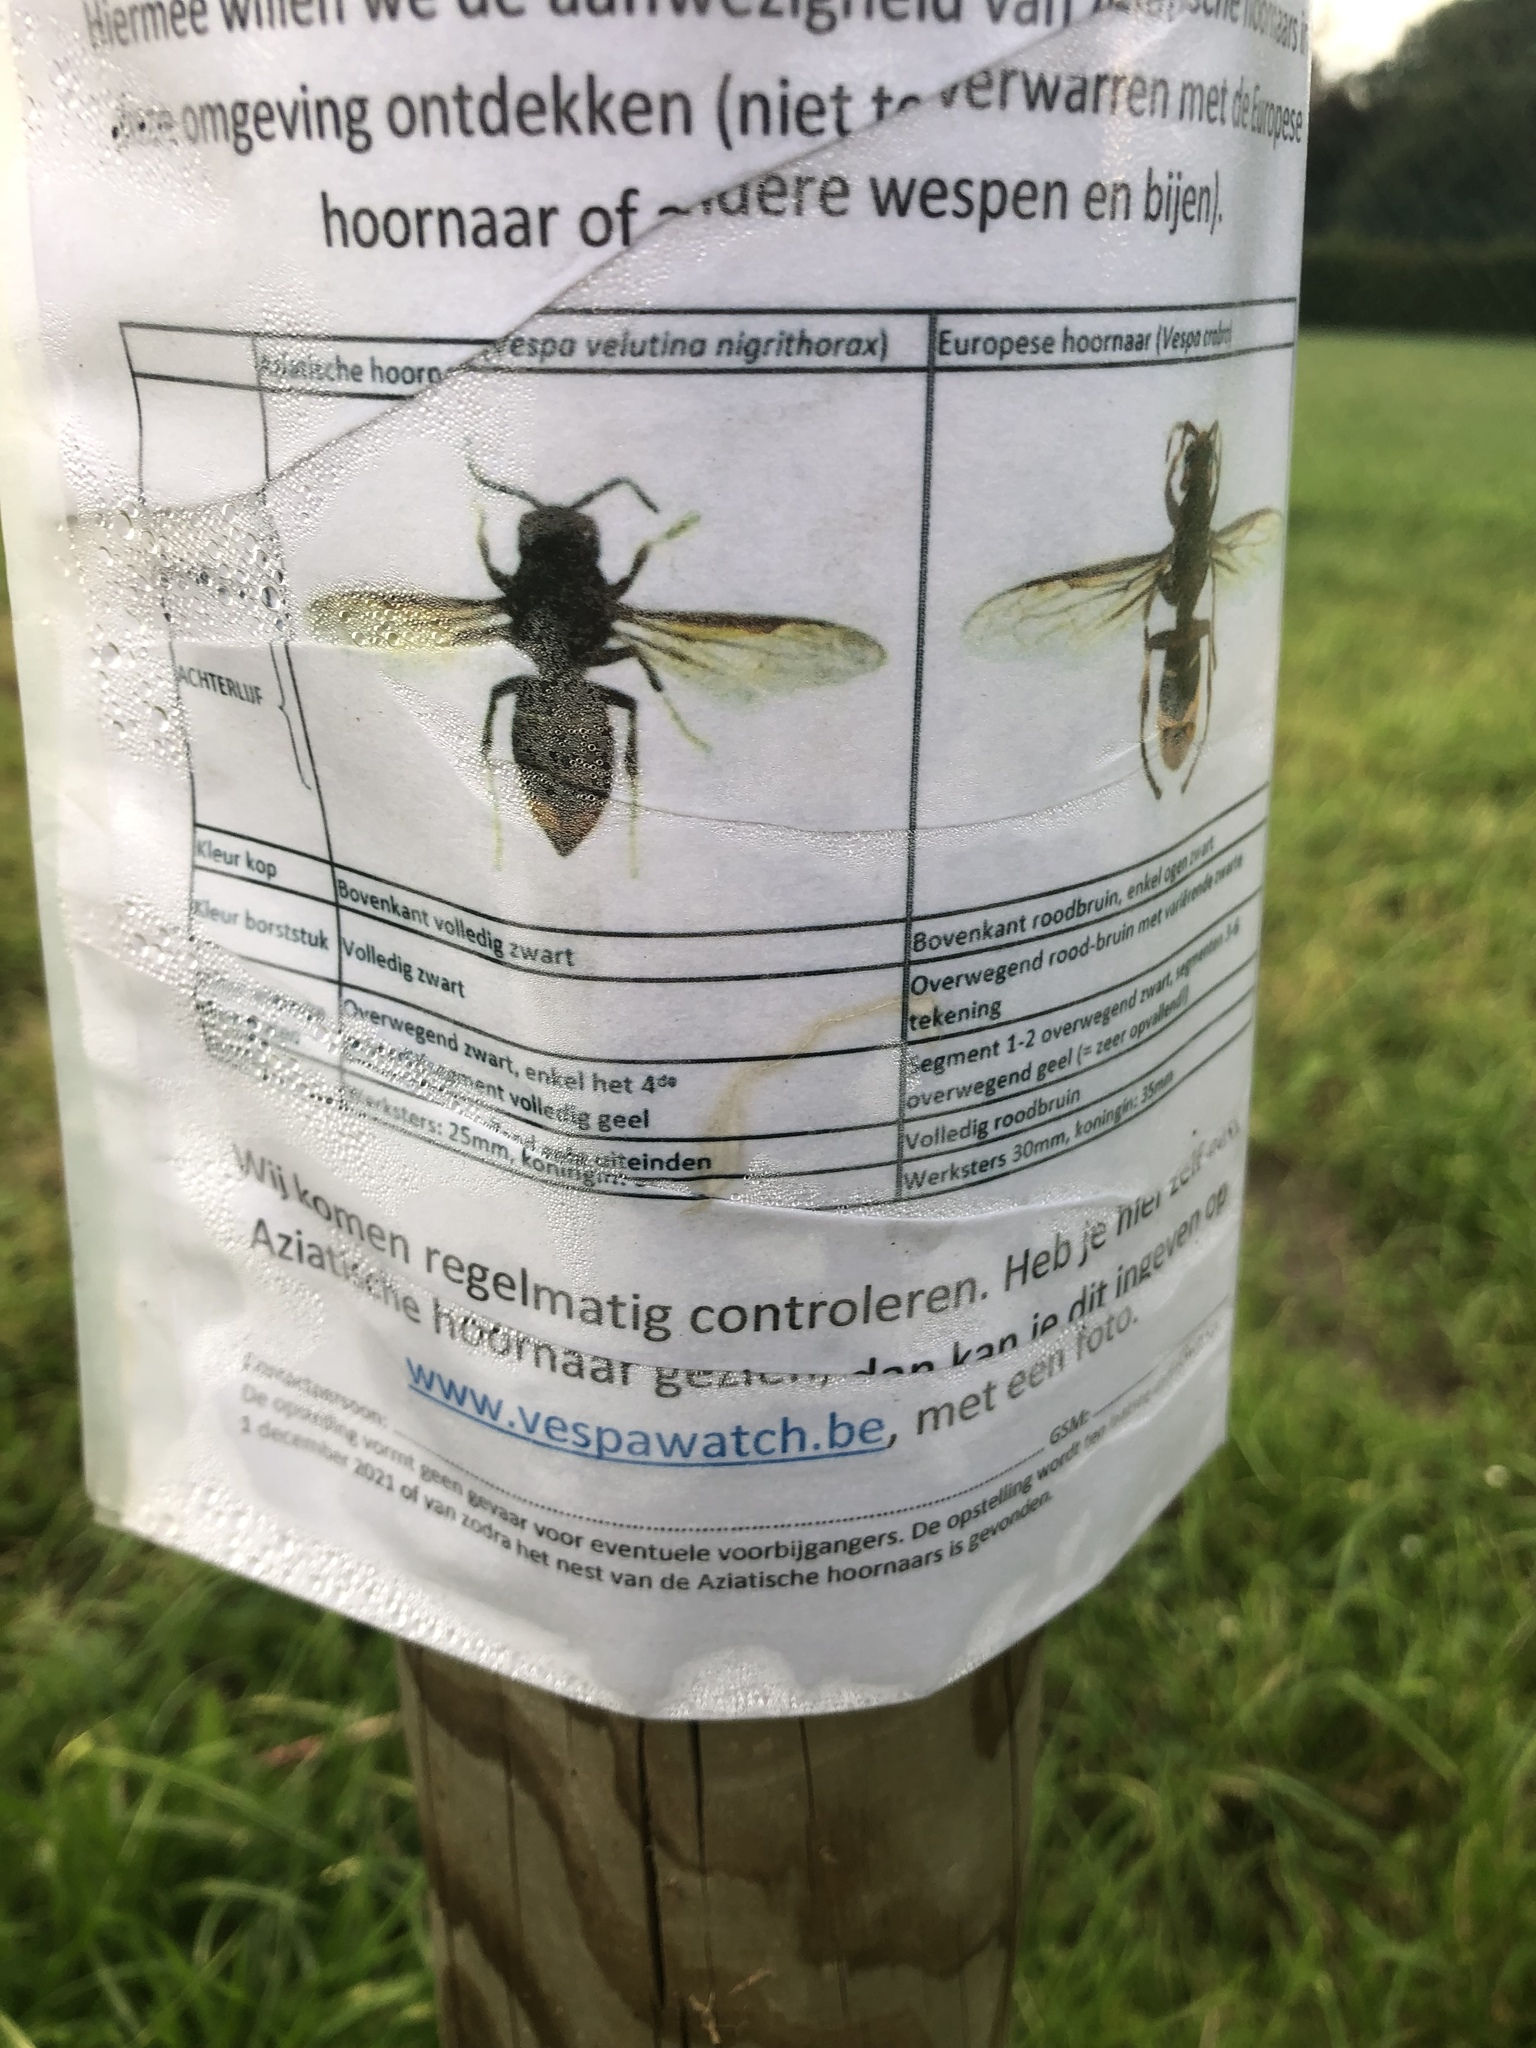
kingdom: Animalia
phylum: Arthropoda
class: Insecta
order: Hymenoptera
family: Vespidae
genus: Vespa
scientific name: Vespa velutina
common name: Asian hornet
